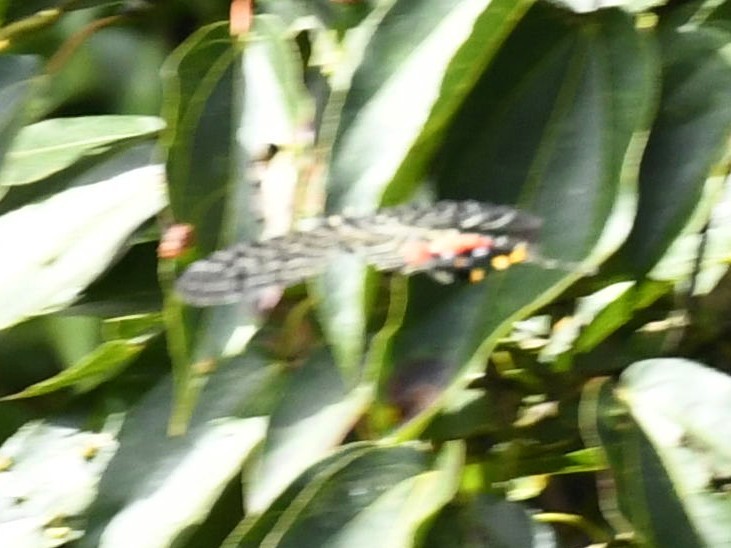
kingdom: Animalia
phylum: Arthropoda
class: Insecta
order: Lepidoptera
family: Papilionidae
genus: Bhutanitis
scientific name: Bhutanitis lidderdalii
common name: Bhutan glory
